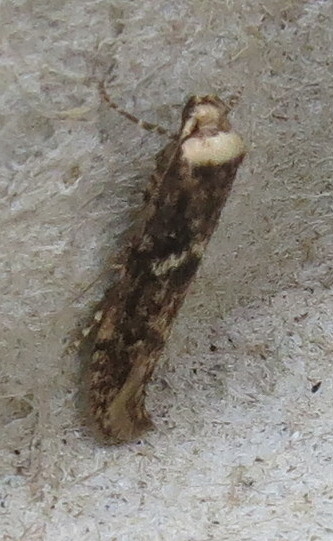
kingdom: Animalia
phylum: Arthropoda
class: Insecta
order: Lepidoptera
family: Blastobasidae
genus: Blastobasis
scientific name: Blastobasis adustella
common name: Dingy dowd
